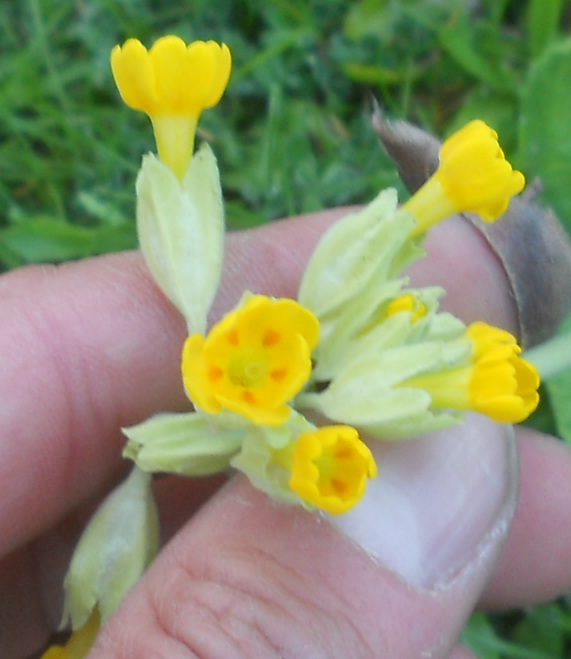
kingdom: Plantae
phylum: Tracheophyta
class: Magnoliopsida
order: Ericales
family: Primulaceae
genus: Primula
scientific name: Primula veris
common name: Cowslip
